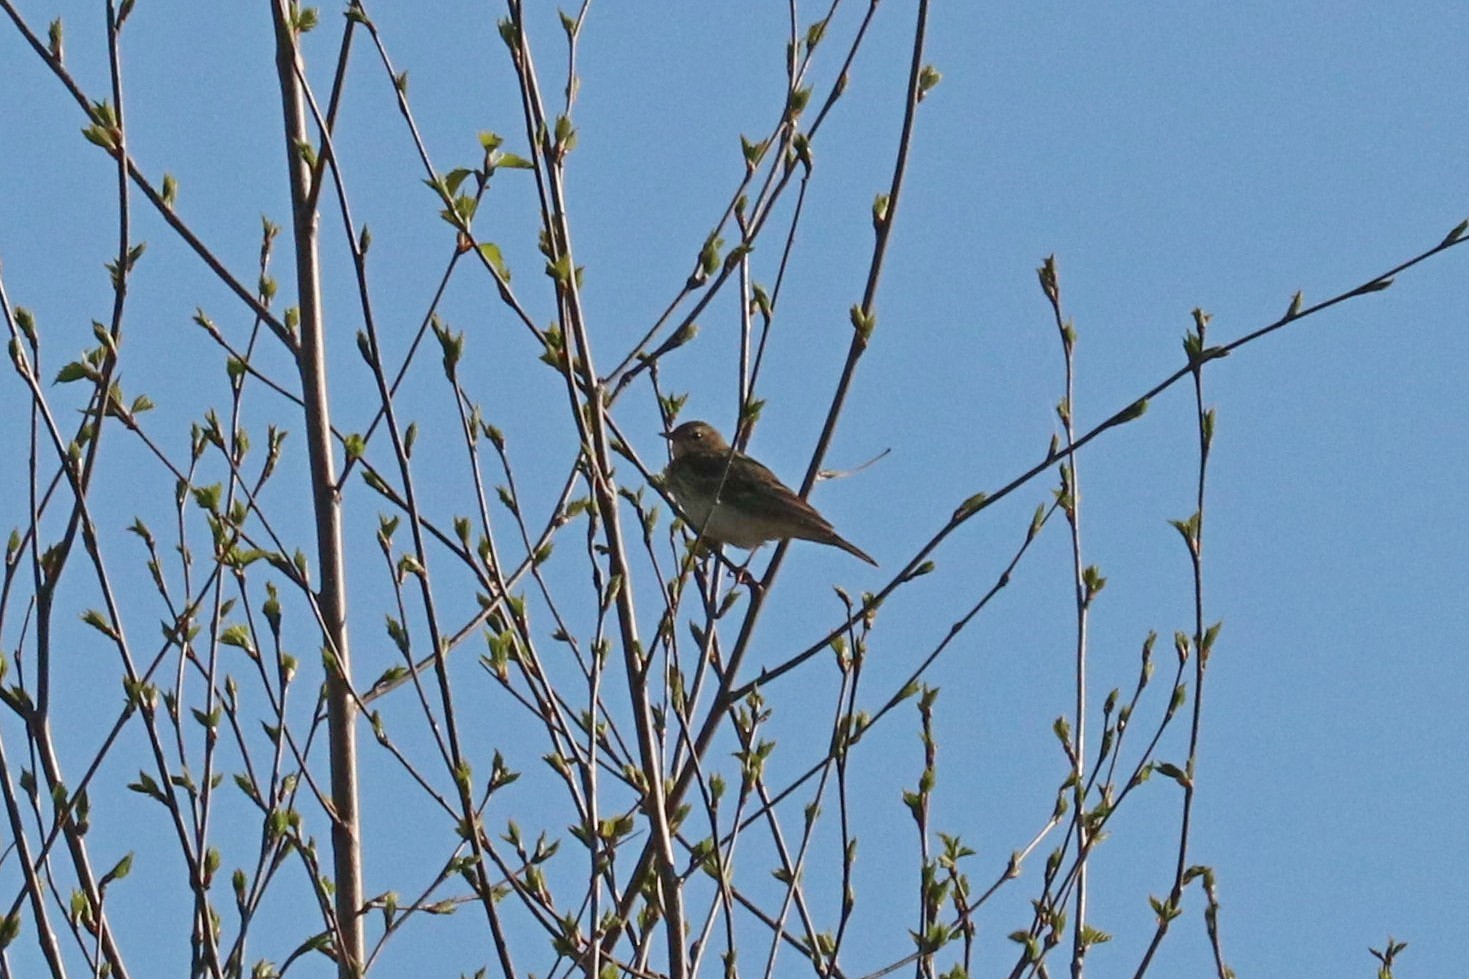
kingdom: Animalia
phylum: Chordata
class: Aves
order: Passeriformes
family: Motacillidae
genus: Anthus
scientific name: Anthus trivialis
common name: Tree pipit
